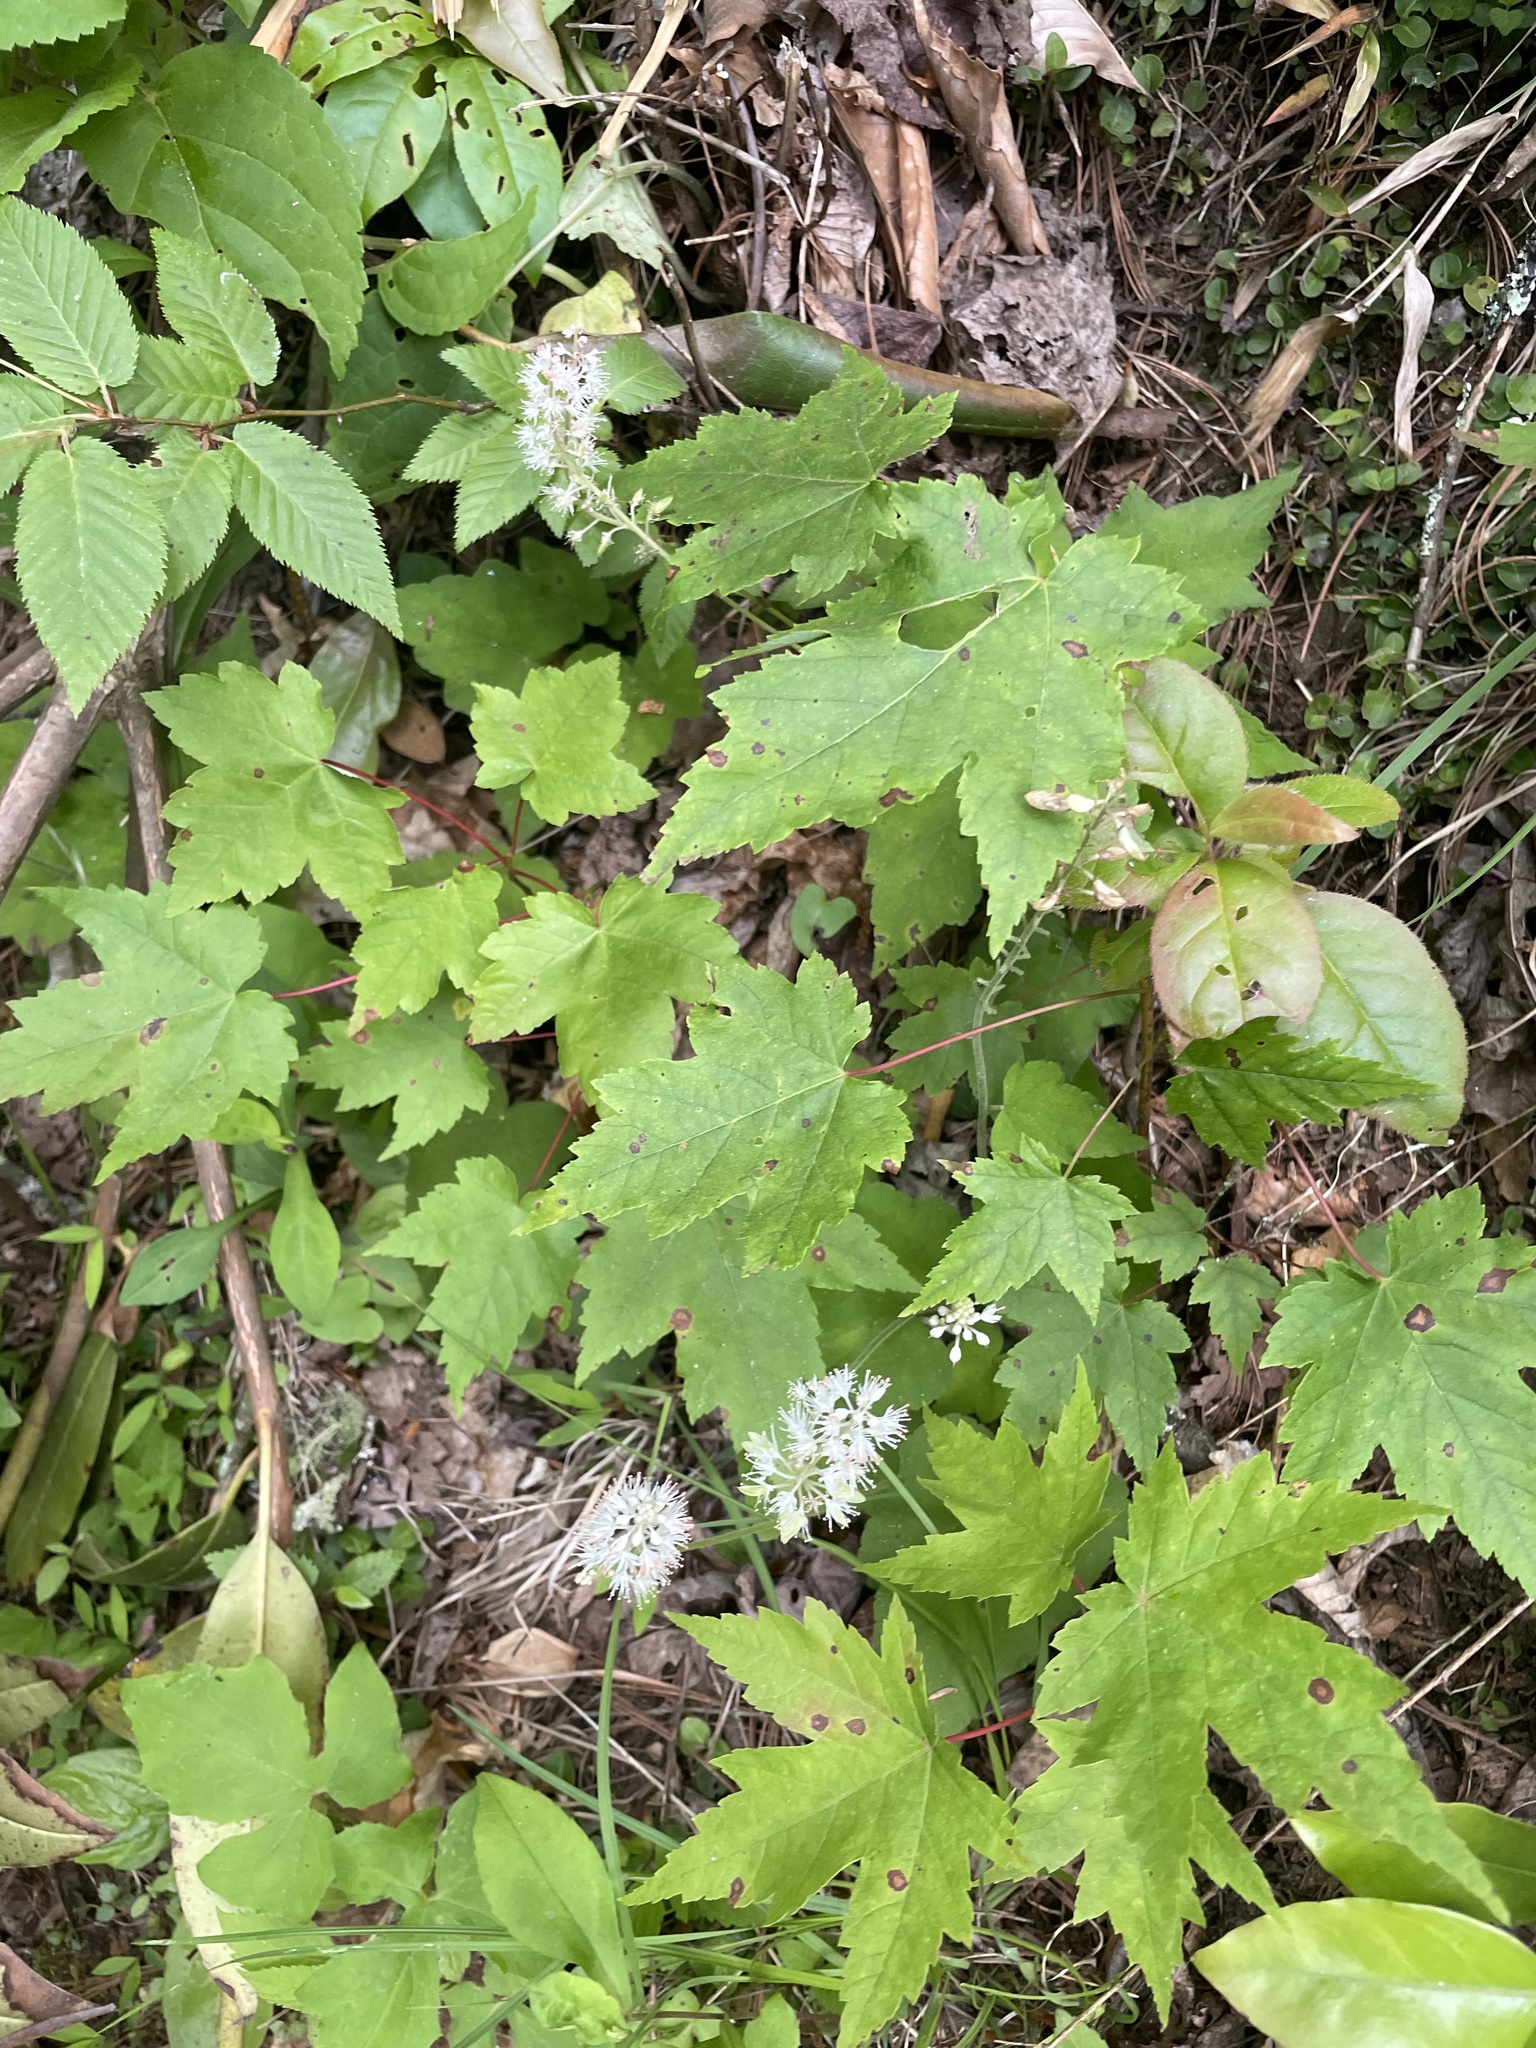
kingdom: Plantae
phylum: Tracheophyta
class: Magnoliopsida
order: Saxifragales
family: Saxifragaceae
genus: Tiarella
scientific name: Tiarella nautila
